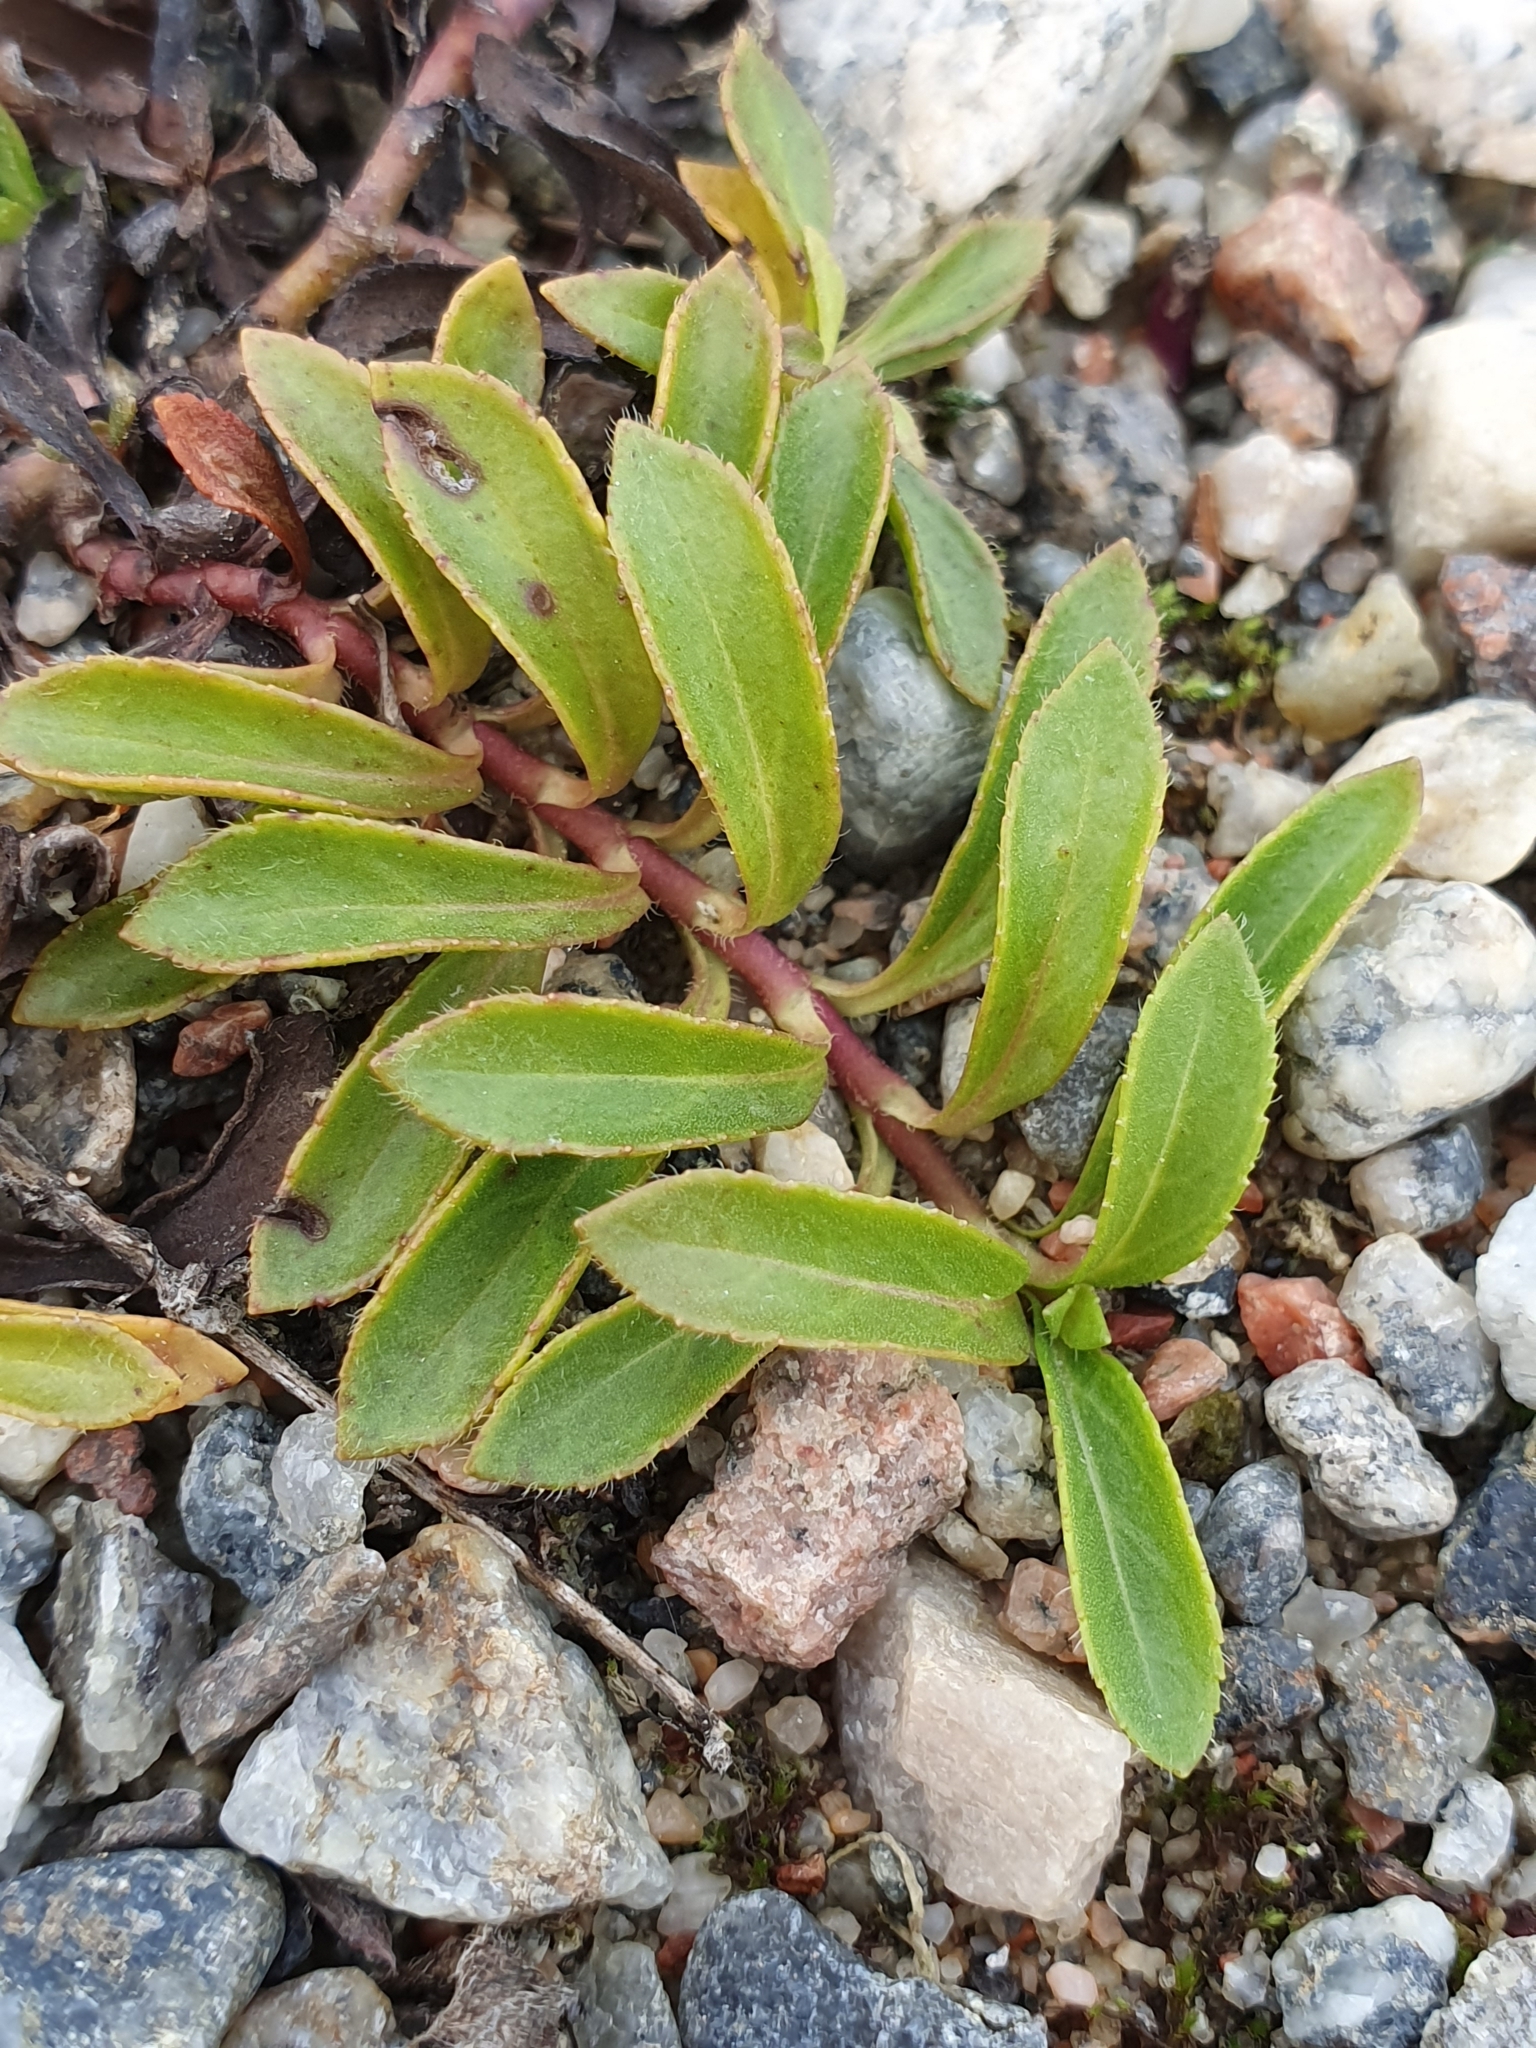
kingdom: Plantae
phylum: Tracheophyta
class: Magnoliopsida
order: Lamiales
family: Plantaginaceae
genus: Veronica
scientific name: Veronica officinalis
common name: Common speedwell
